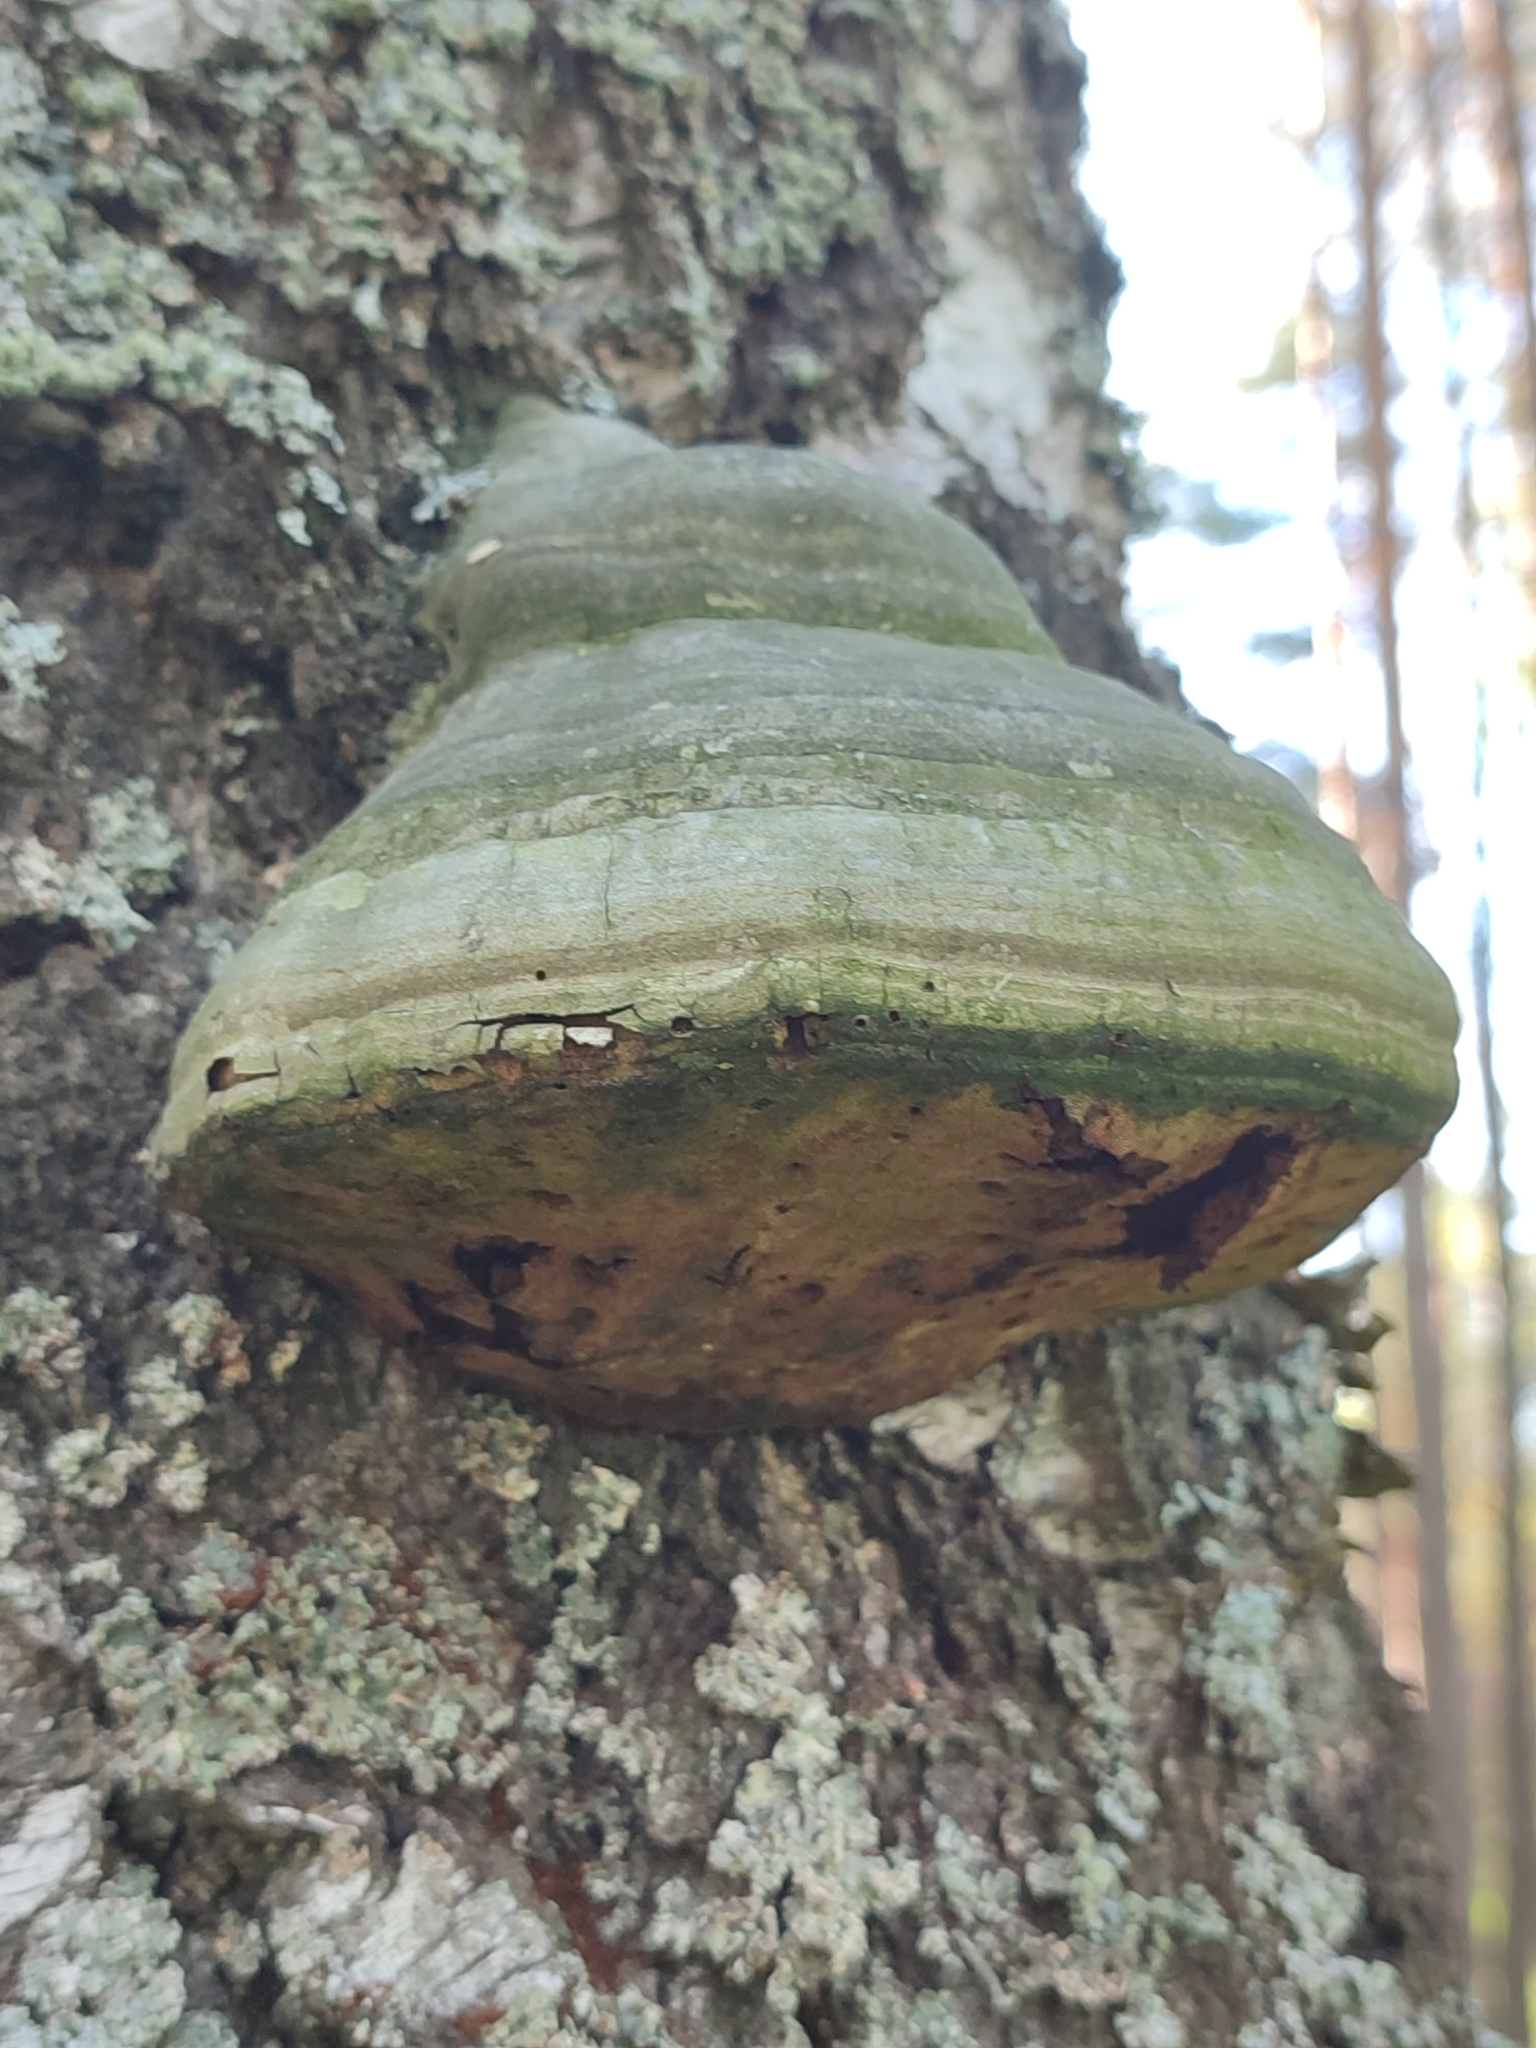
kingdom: Fungi
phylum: Basidiomycota
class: Agaricomycetes
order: Polyporales
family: Polyporaceae
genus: Fomes
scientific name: Fomes fomentarius
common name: Hoof fungus
